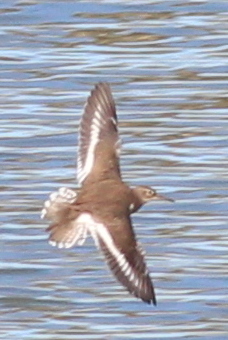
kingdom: Animalia
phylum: Chordata
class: Aves
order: Charadriiformes
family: Scolopacidae
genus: Actitis
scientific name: Actitis hypoleucos
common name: Common sandpiper
